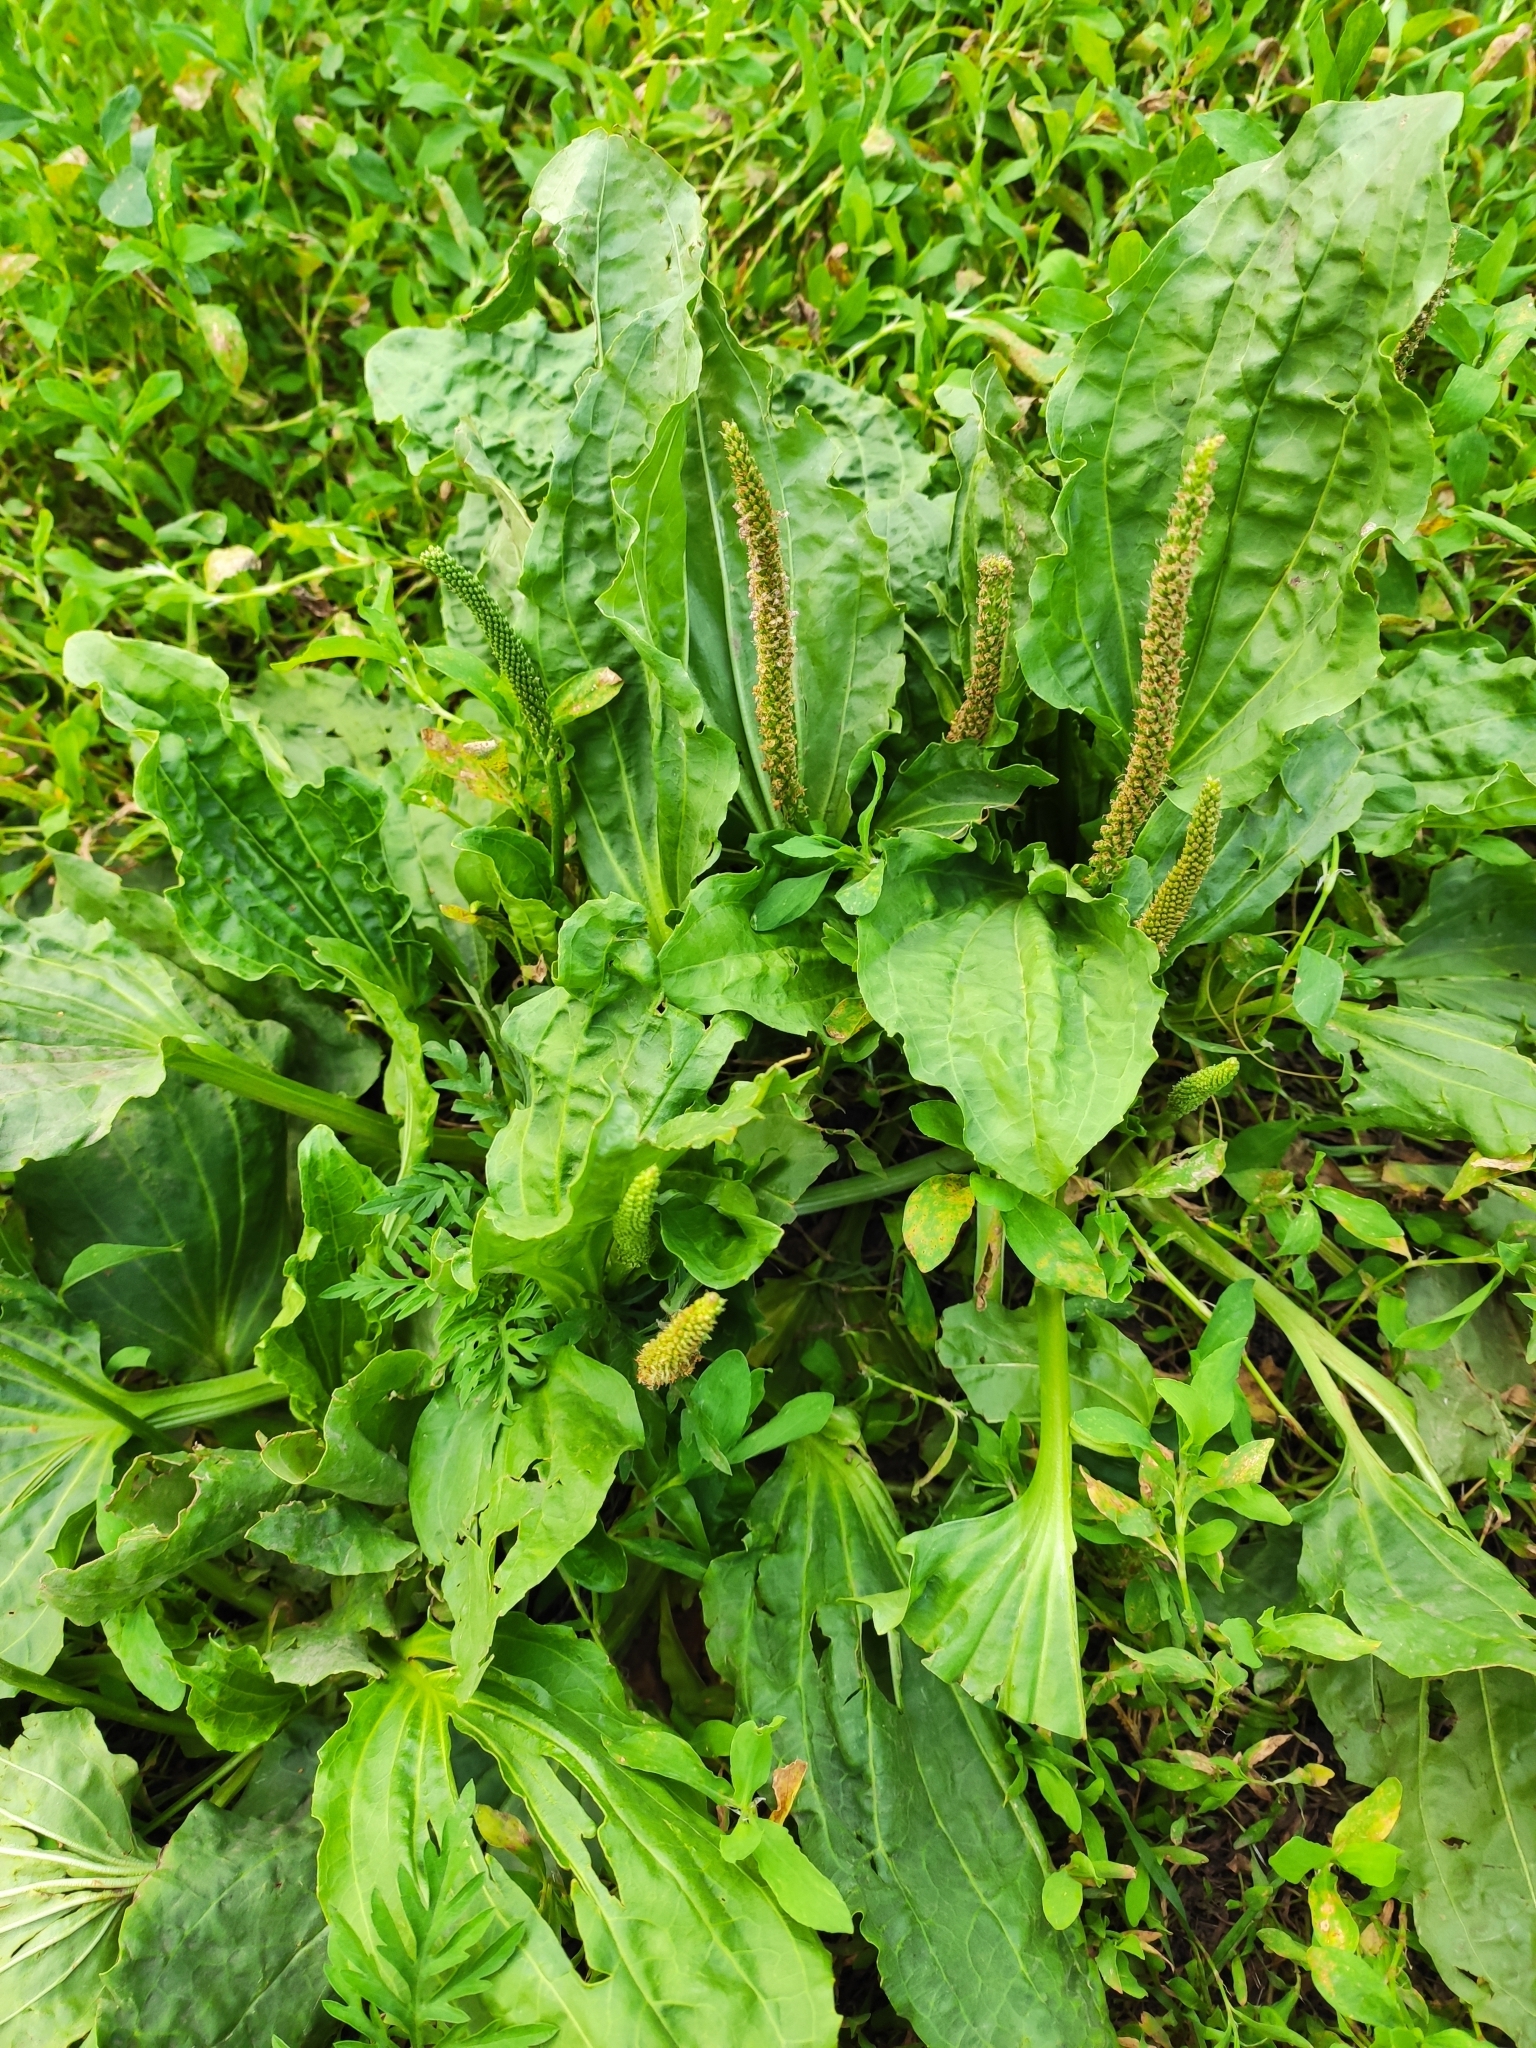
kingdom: Plantae
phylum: Tracheophyta
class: Magnoliopsida
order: Lamiales
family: Plantaginaceae
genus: Plantago
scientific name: Plantago major
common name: Common plantain
